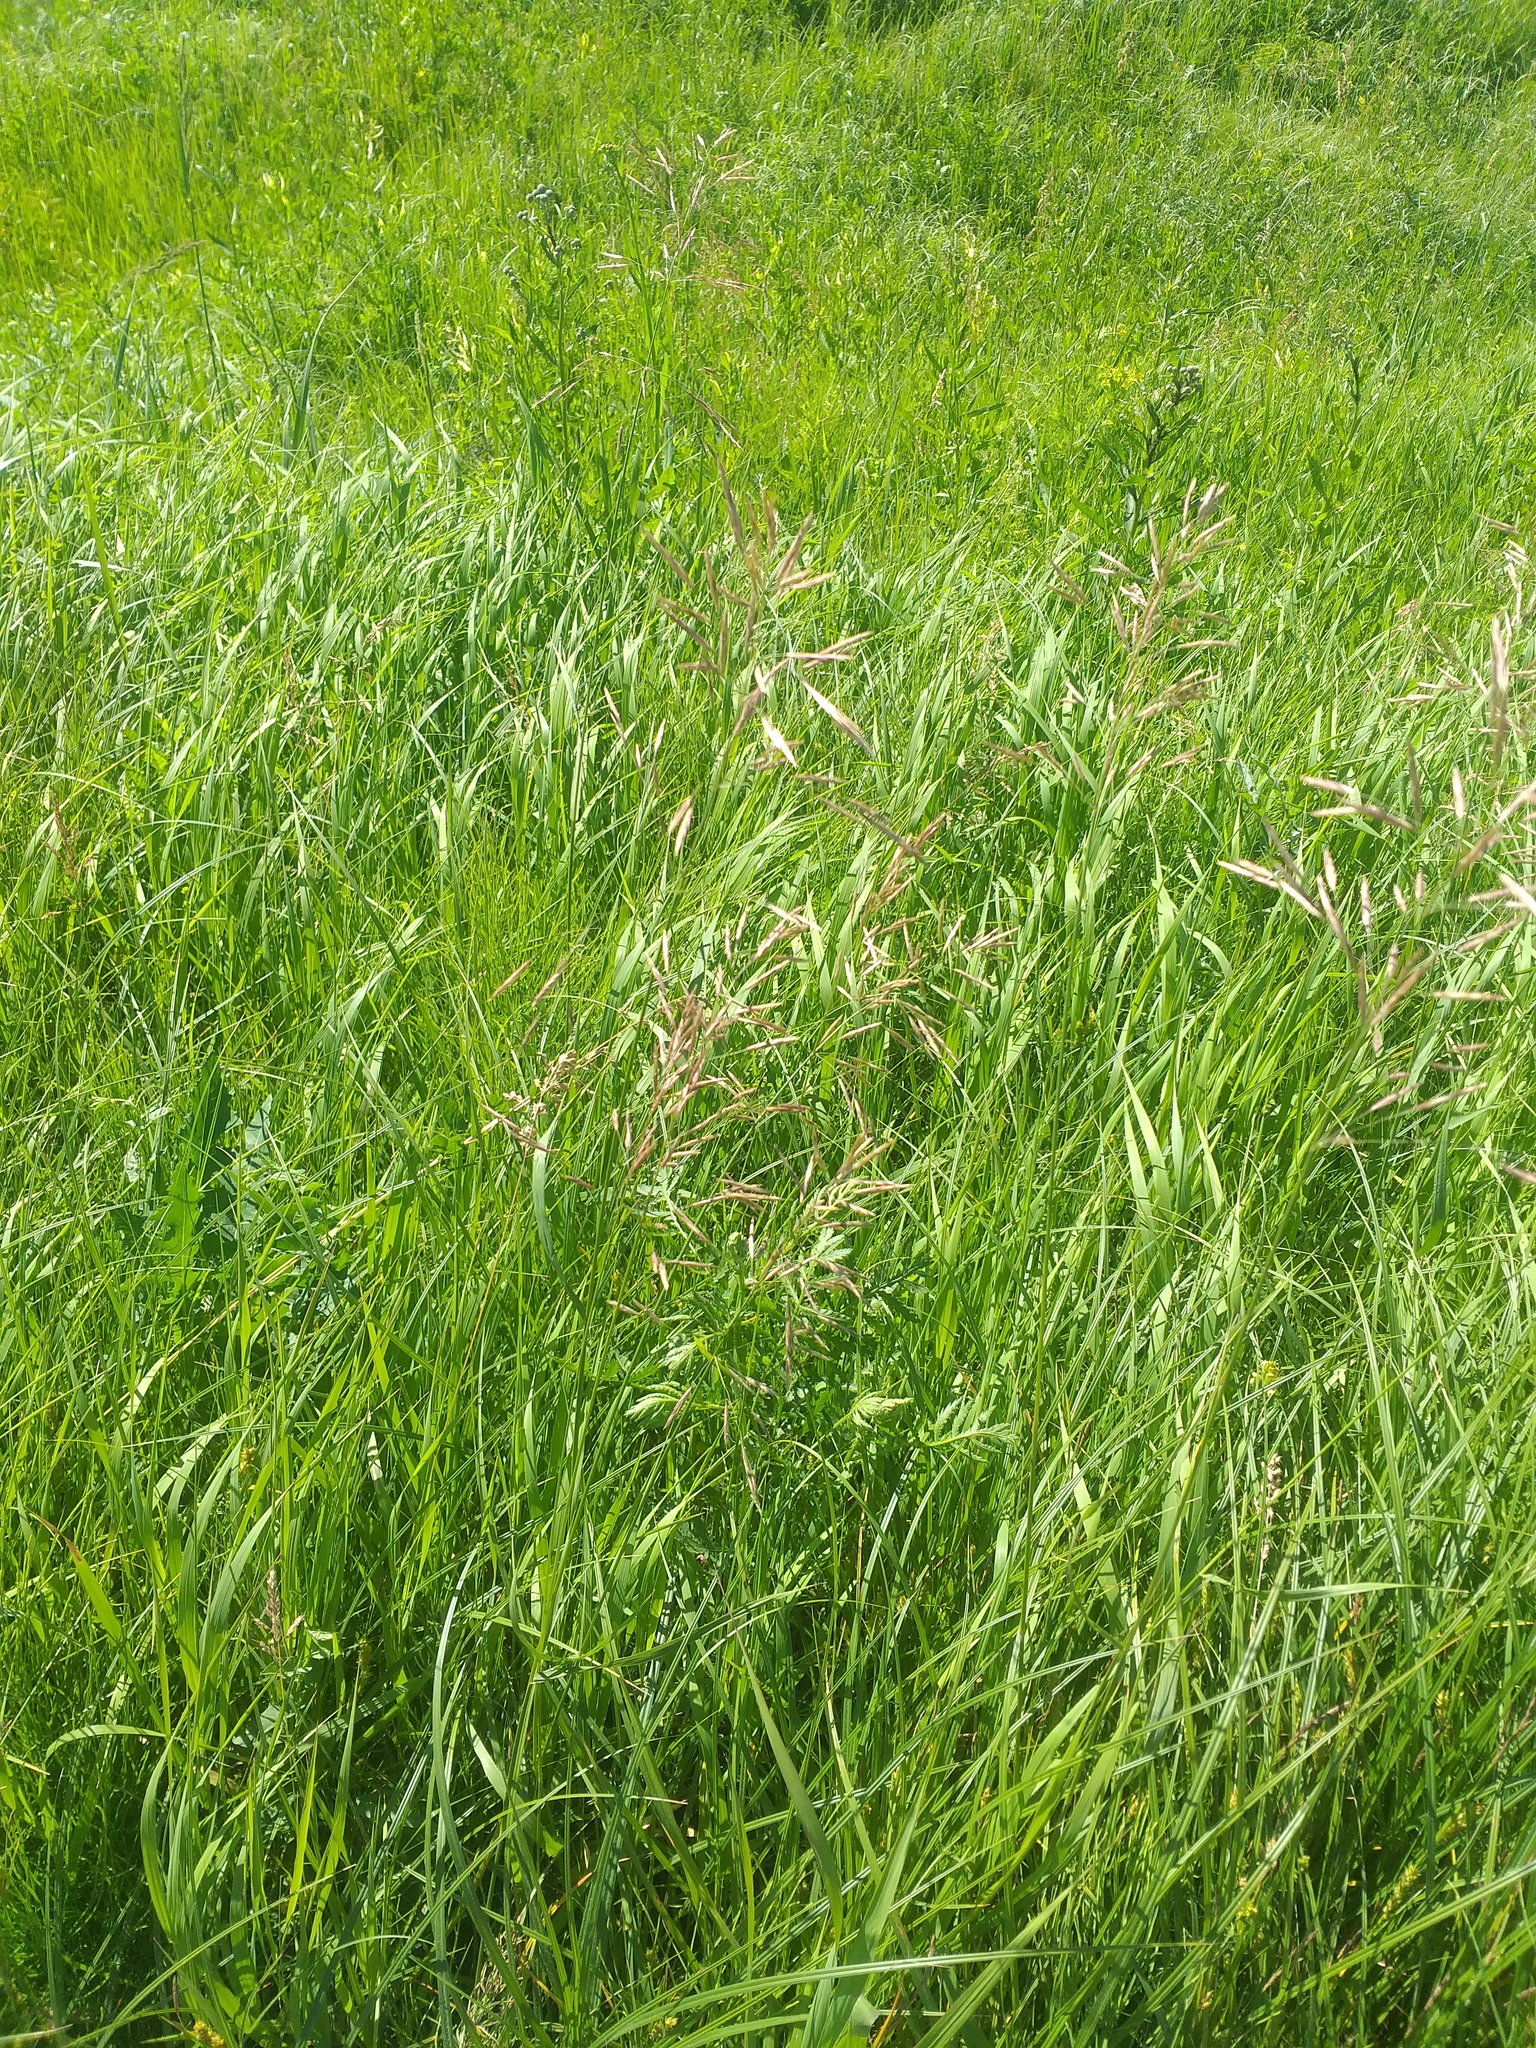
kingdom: Plantae
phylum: Tracheophyta
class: Liliopsida
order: Poales
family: Poaceae
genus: Bromus
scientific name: Bromus inermis
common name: Smooth brome
